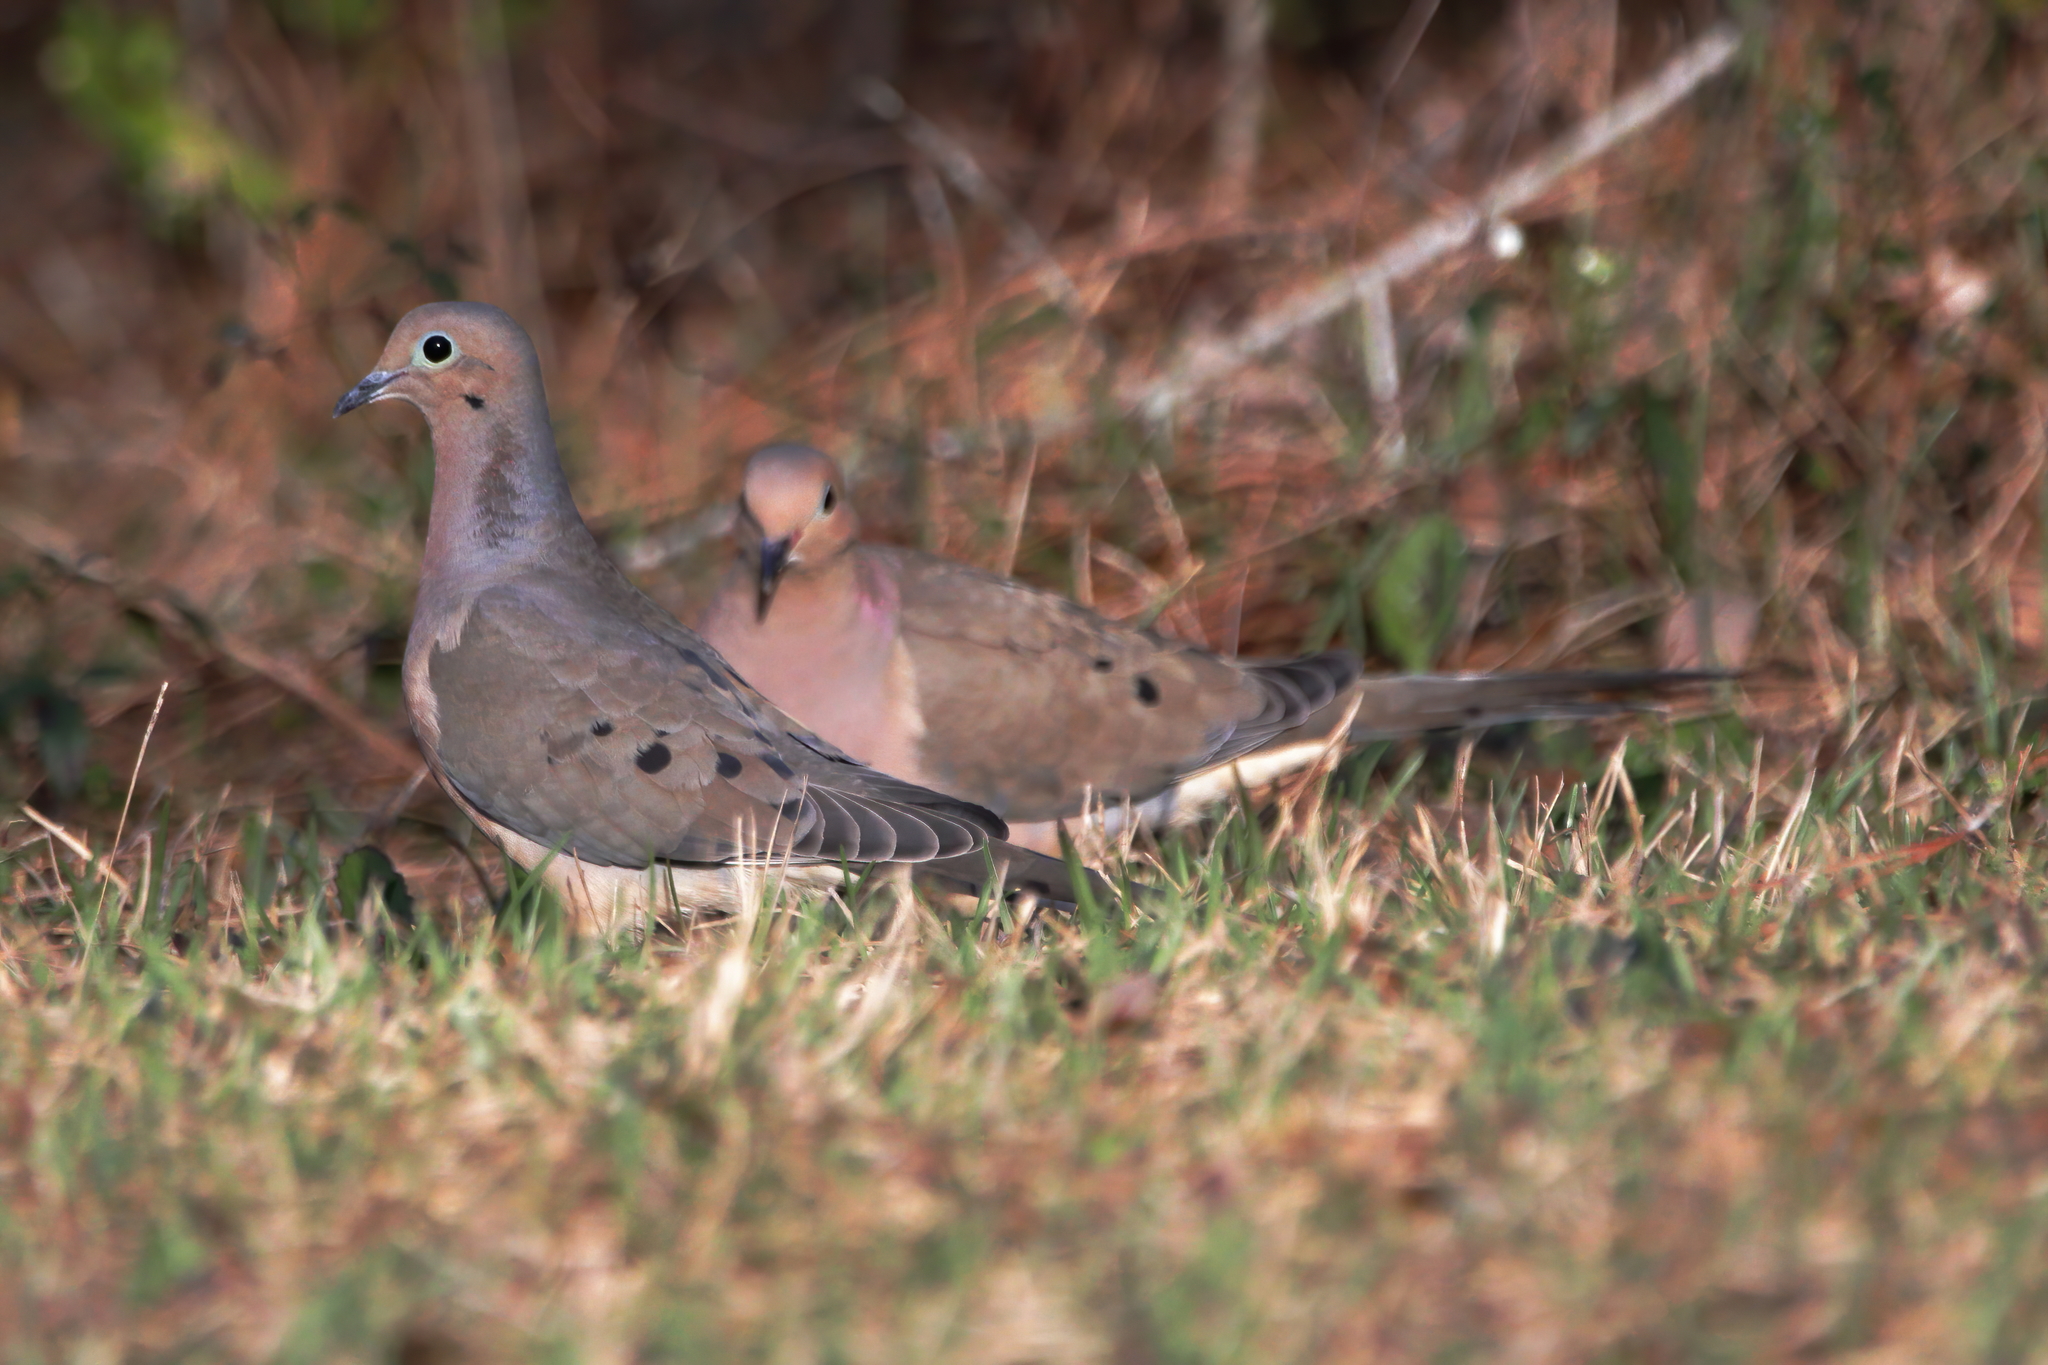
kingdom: Animalia
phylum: Chordata
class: Aves
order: Columbiformes
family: Columbidae
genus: Zenaida
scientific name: Zenaida macroura
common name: Mourning dove
